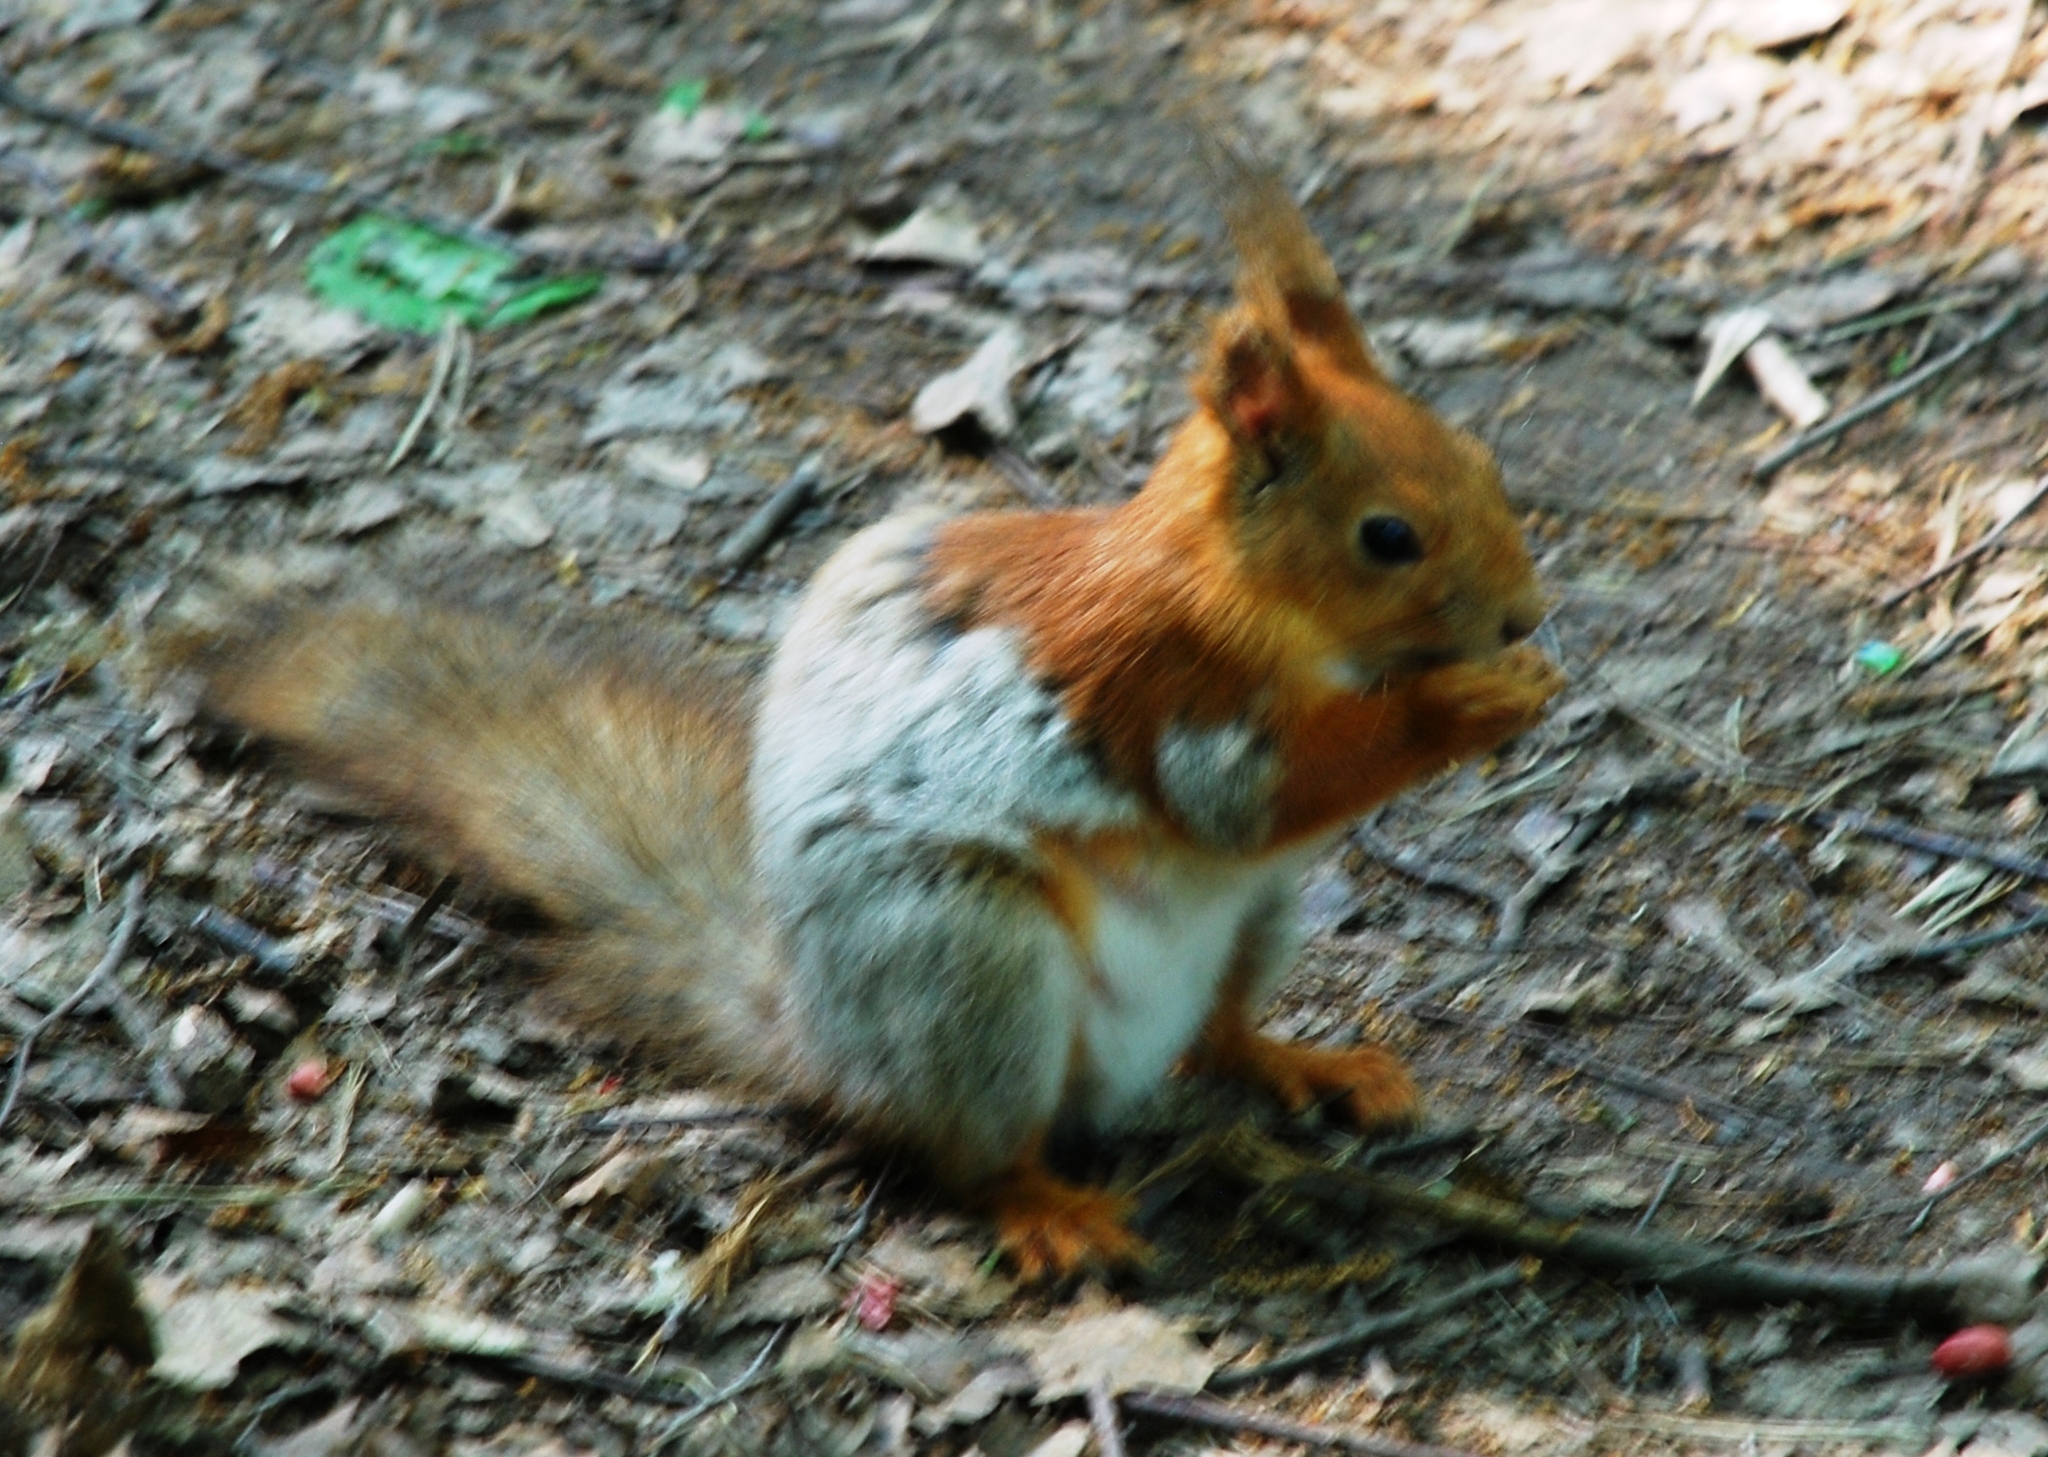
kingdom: Animalia
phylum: Chordata
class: Mammalia
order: Rodentia
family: Sciuridae
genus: Sciurus
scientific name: Sciurus vulgaris
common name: Eurasian red squirrel
